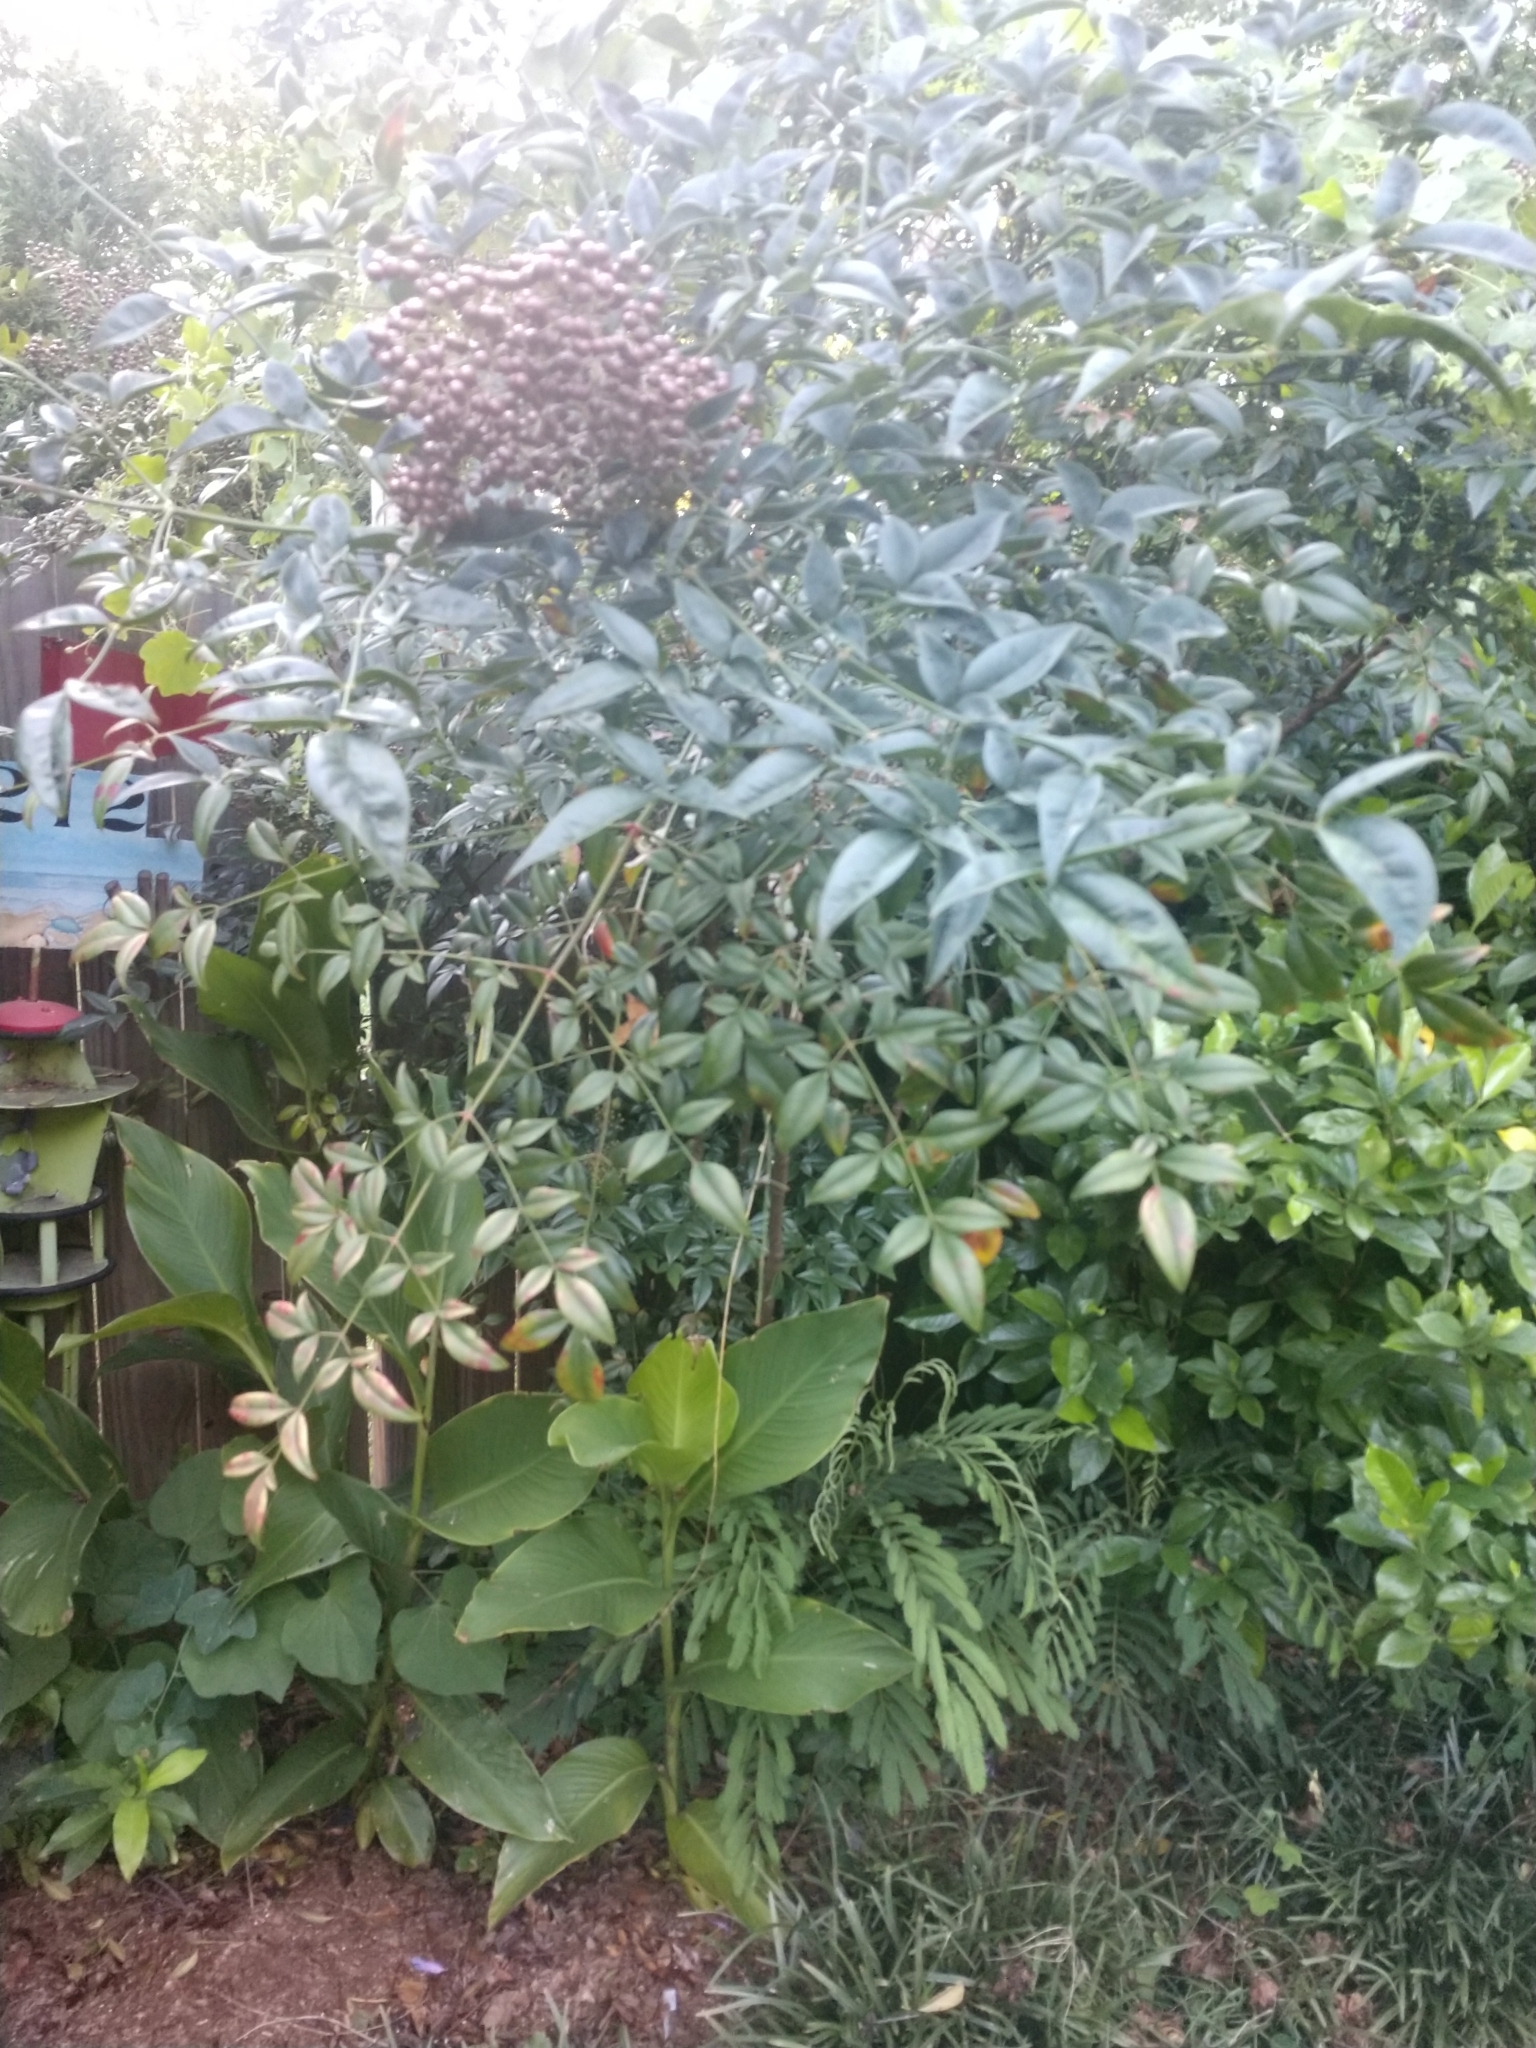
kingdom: Plantae
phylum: Tracheophyta
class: Magnoliopsida
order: Ranunculales
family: Berberidaceae
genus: Nandina
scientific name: Nandina domestica
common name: Sacred bamboo
